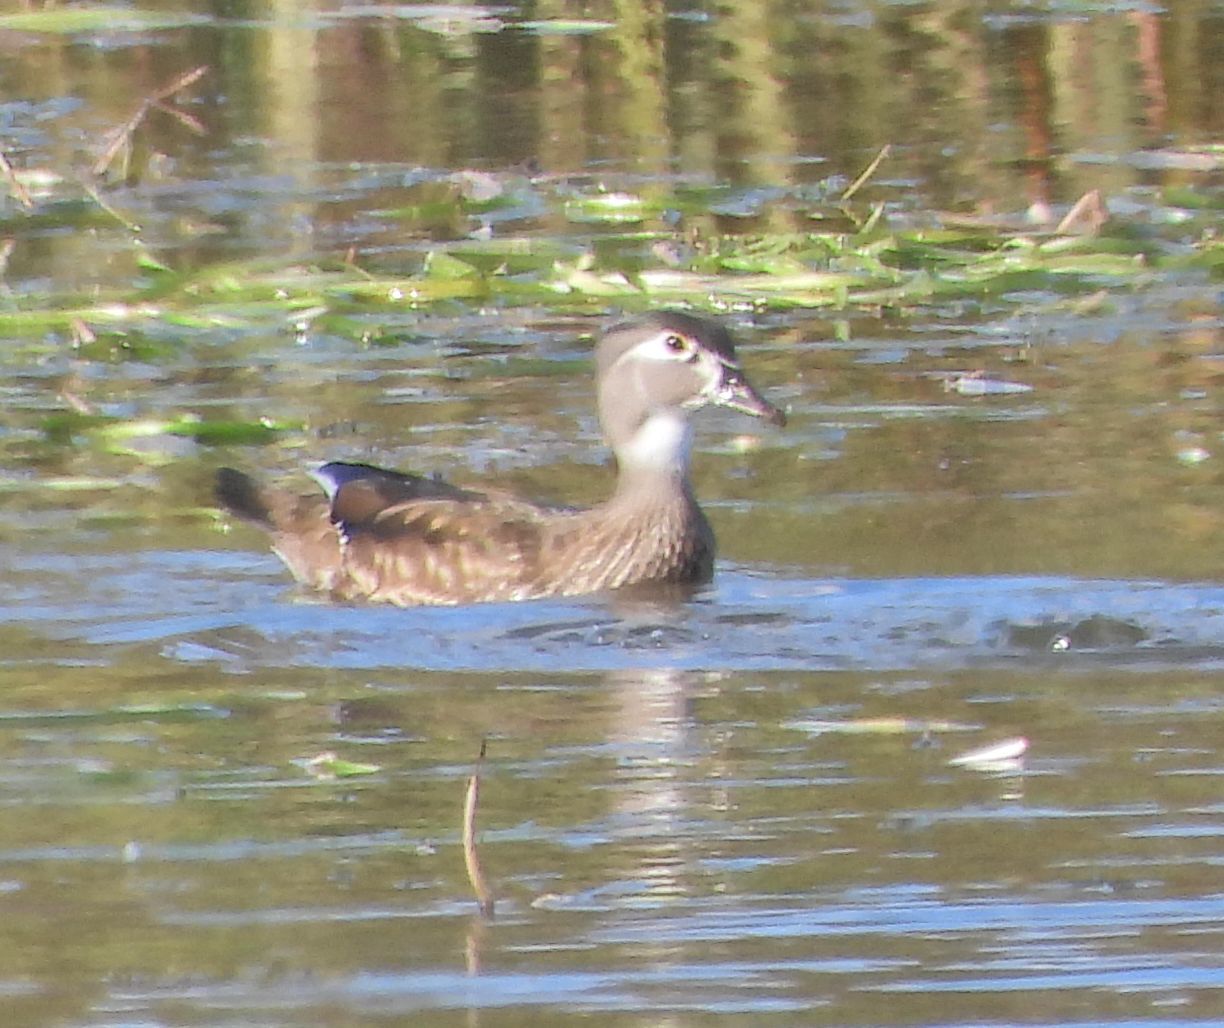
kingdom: Animalia
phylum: Chordata
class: Aves
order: Anseriformes
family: Anatidae
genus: Aix
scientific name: Aix sponsa
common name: Wood duck
